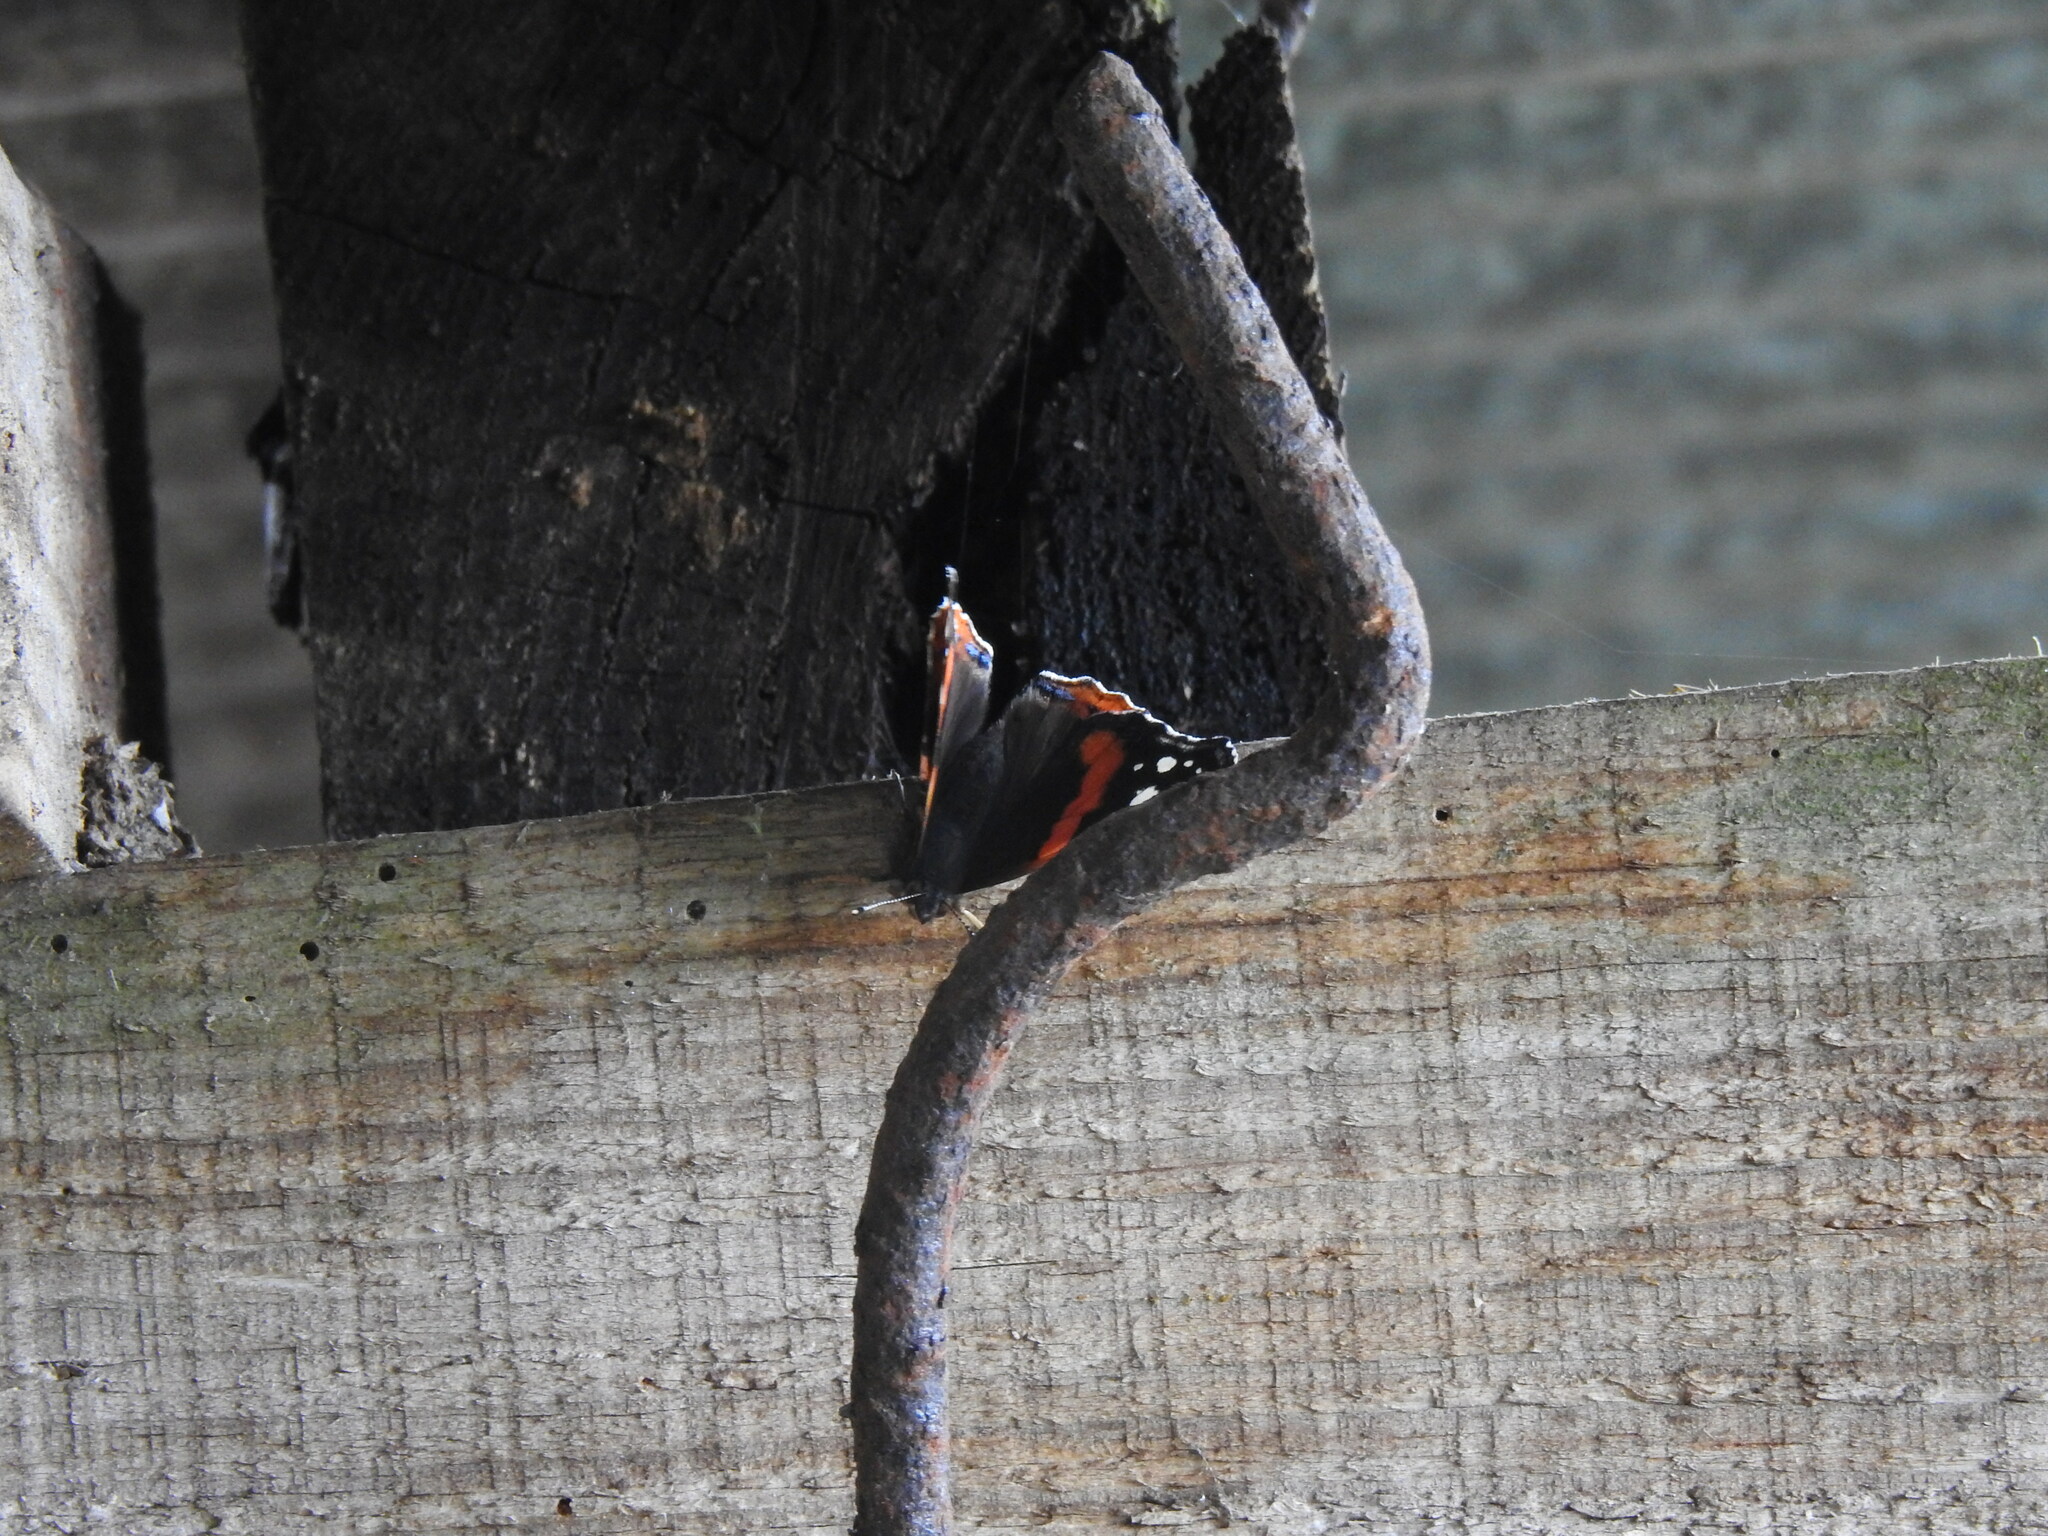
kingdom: Animalia
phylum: Arthropoda
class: Insecta
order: Lepidoptera
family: Nymphalidae
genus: Vanessa
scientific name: Vanessa atalanta
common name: Red admiral
